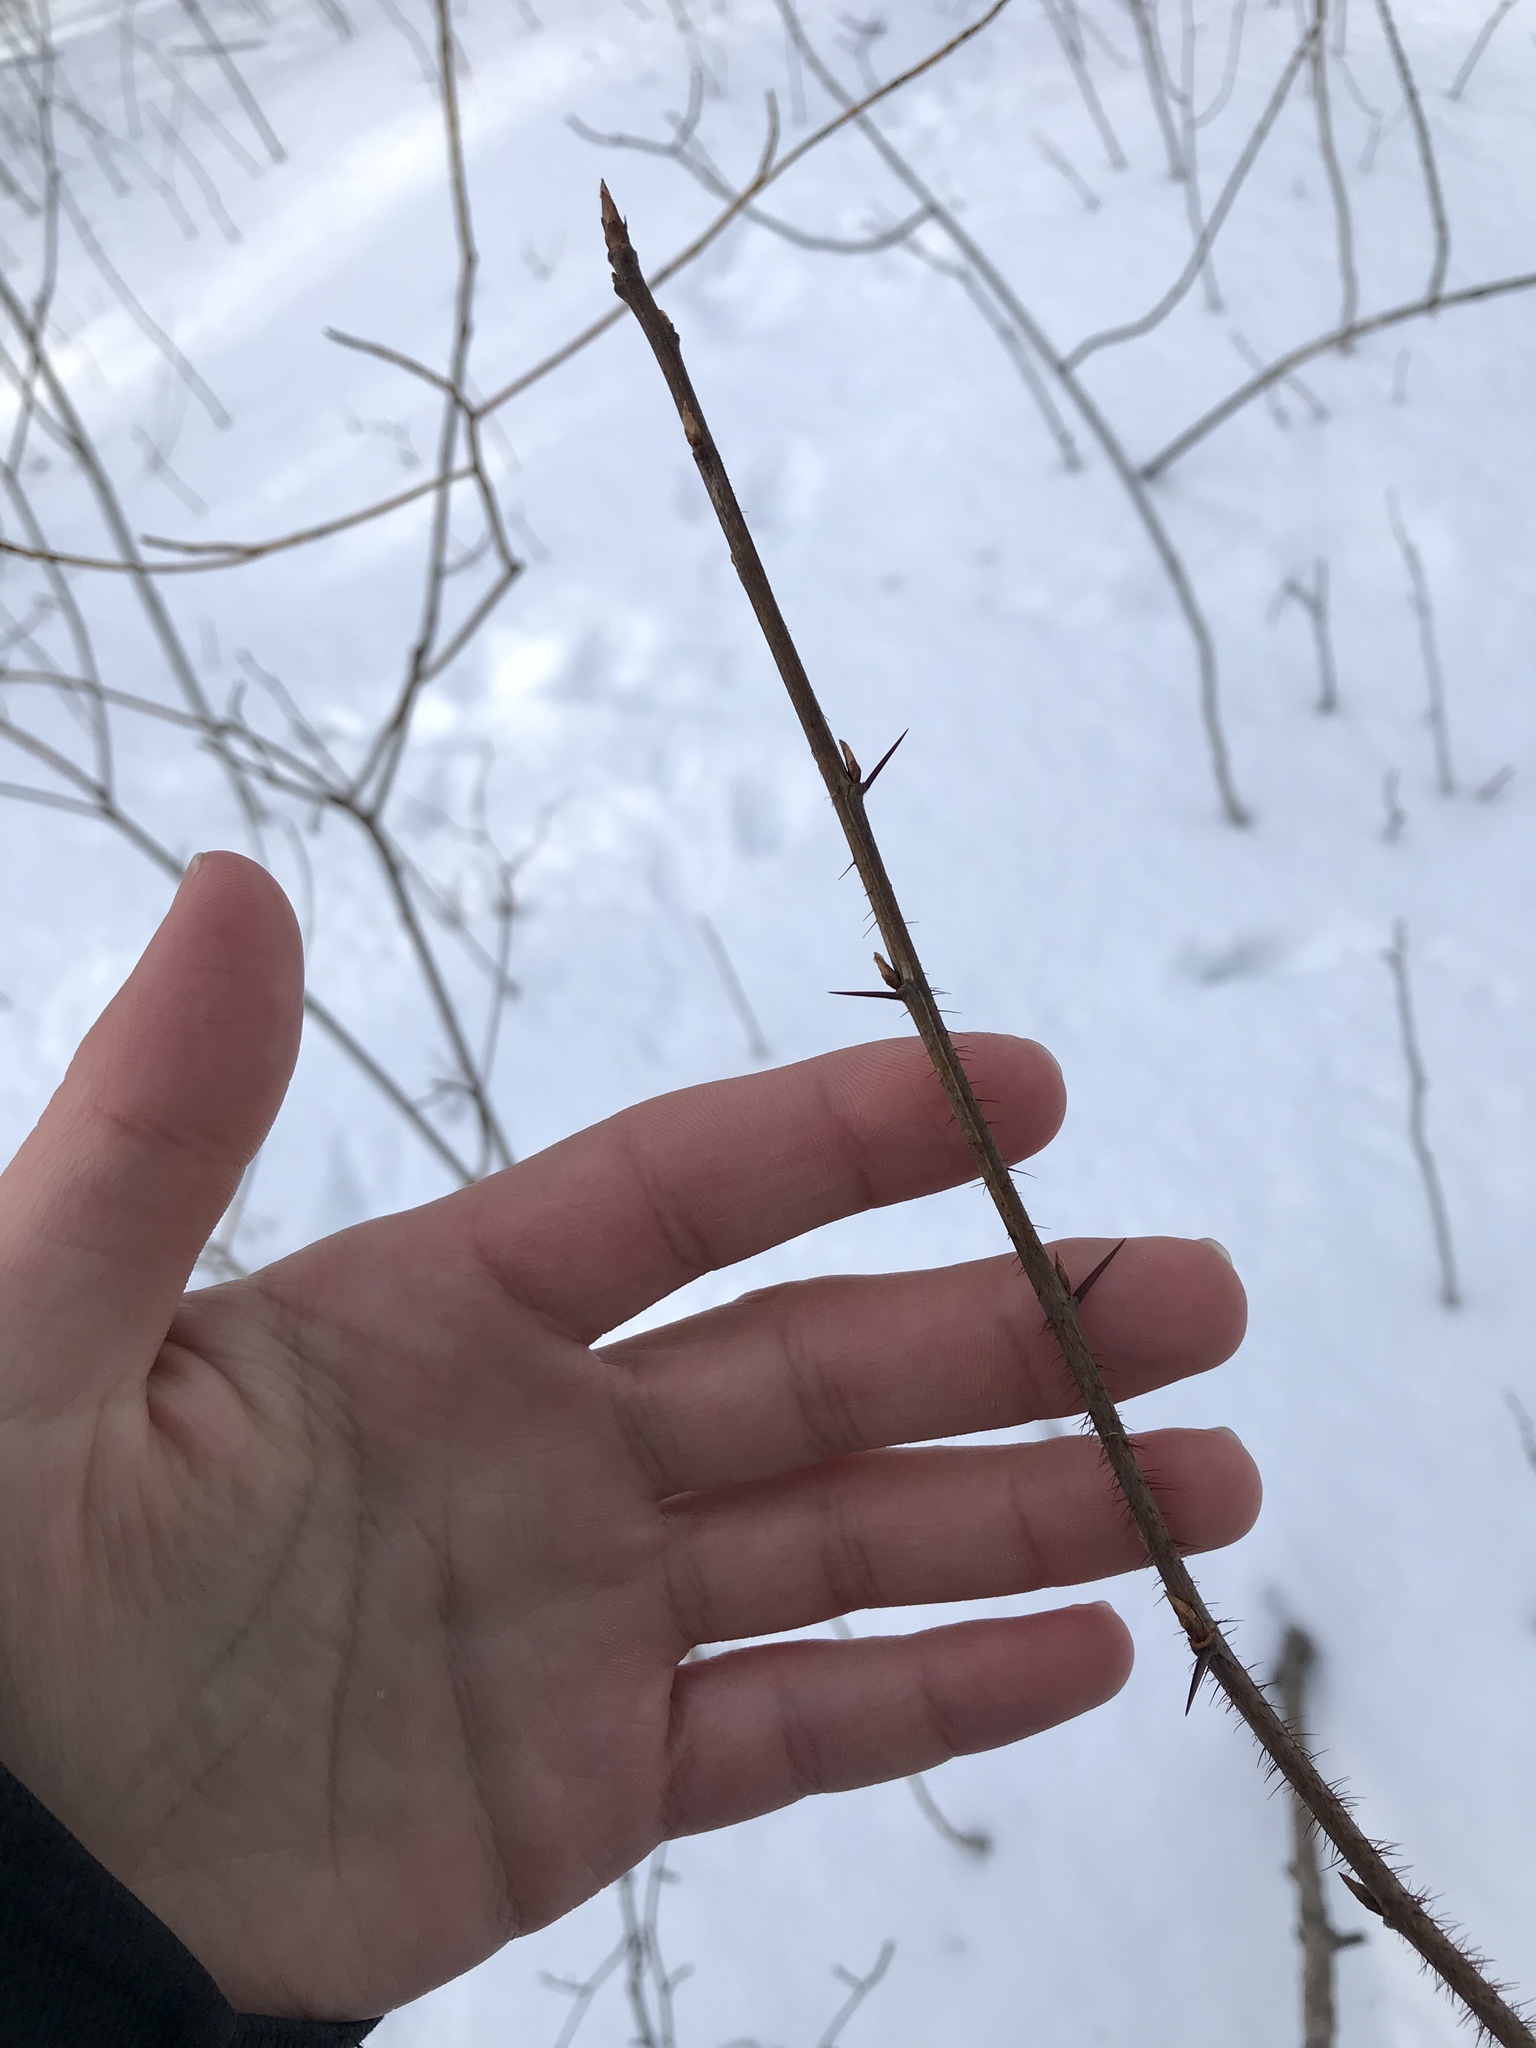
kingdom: Plantae
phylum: Tracheophyta
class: Magnoliopsida
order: Saxifragales
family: Grossulariaceae
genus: Ribes
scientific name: Ribes cynosbati
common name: American gooseberry
